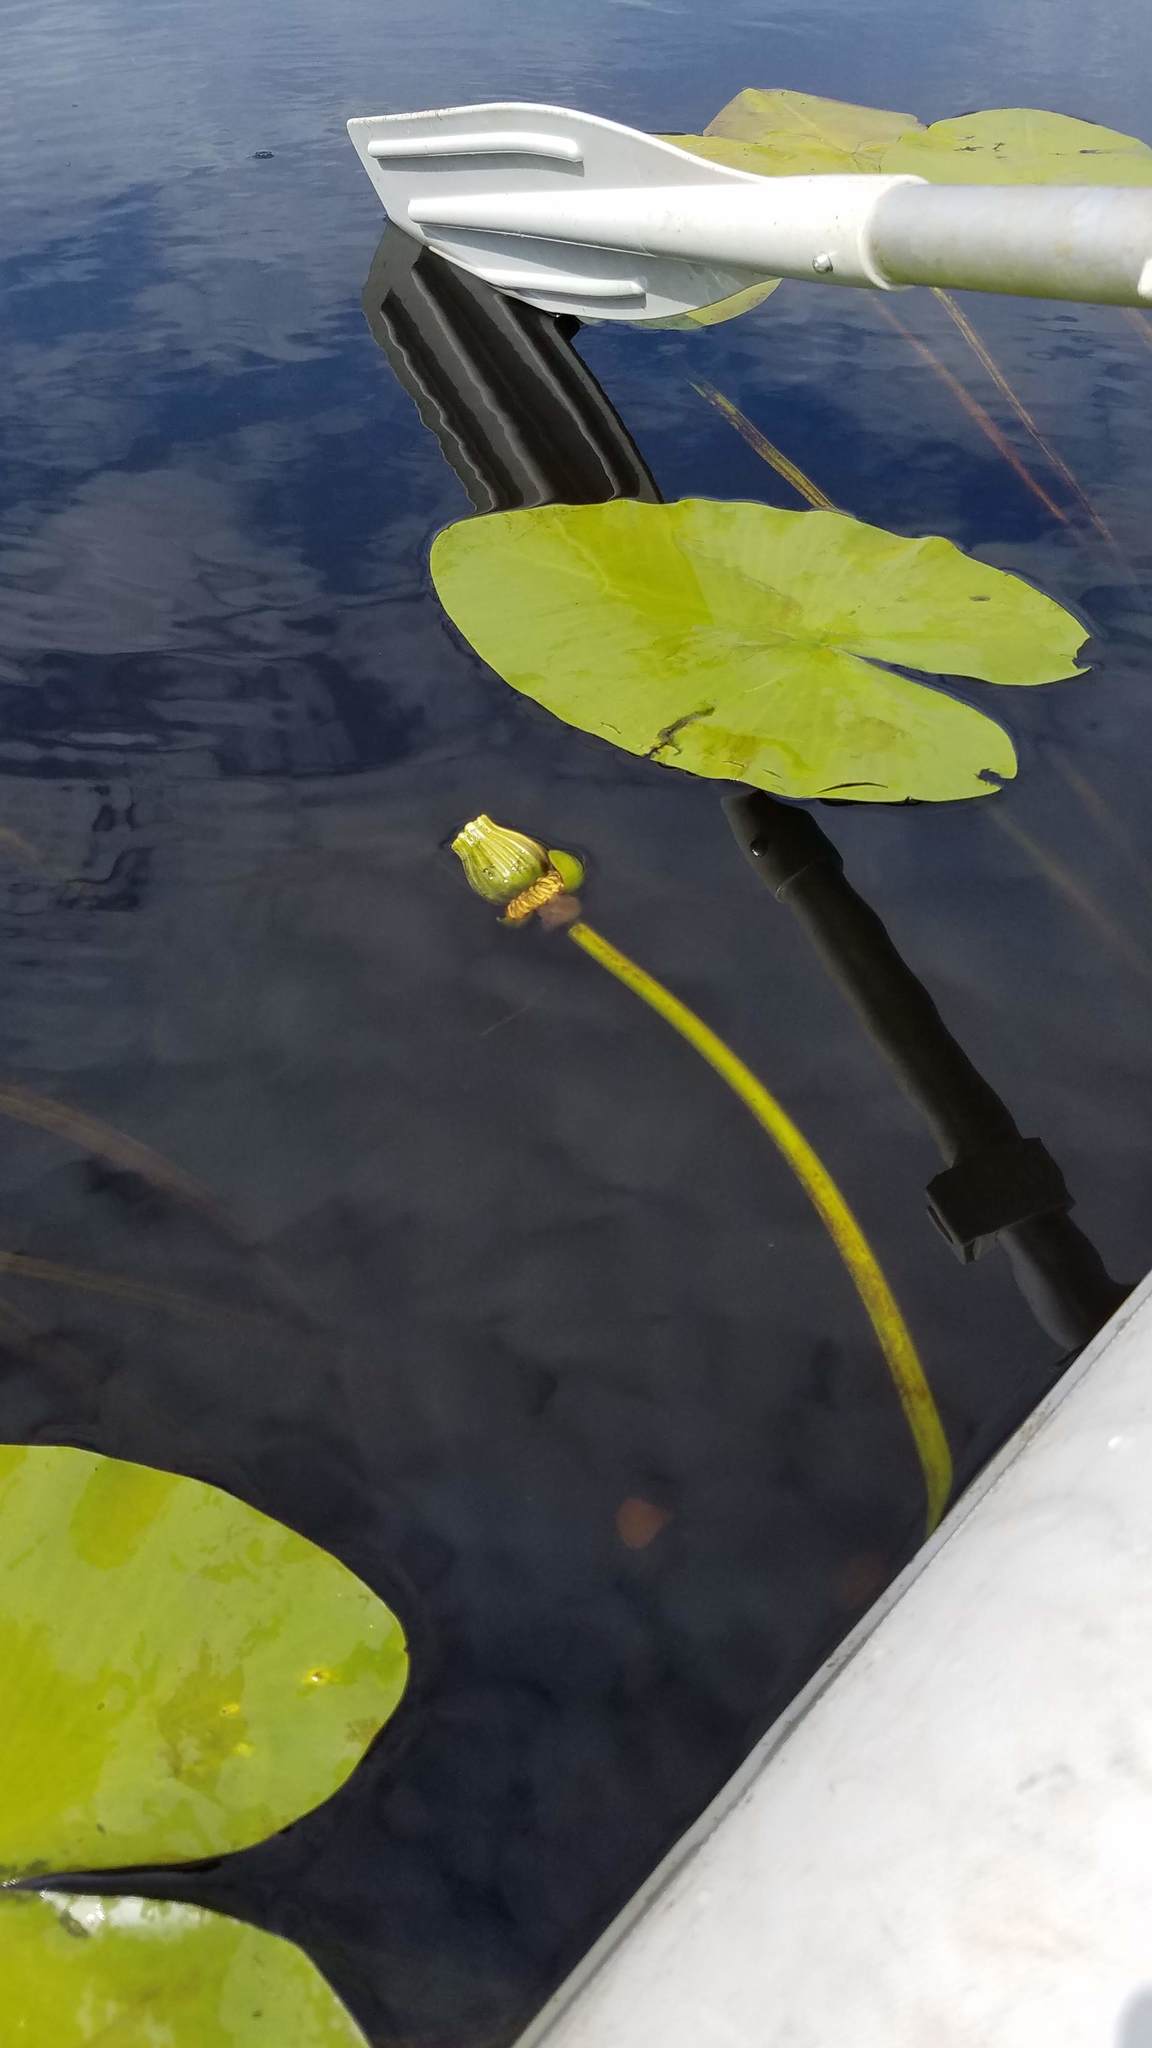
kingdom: Plantae
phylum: Tracheophyta
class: Magnoliopsida
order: Nymphaeales
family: Nymphaeaceae
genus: Nuphar
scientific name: Nuphar variegata
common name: Beaver-root
